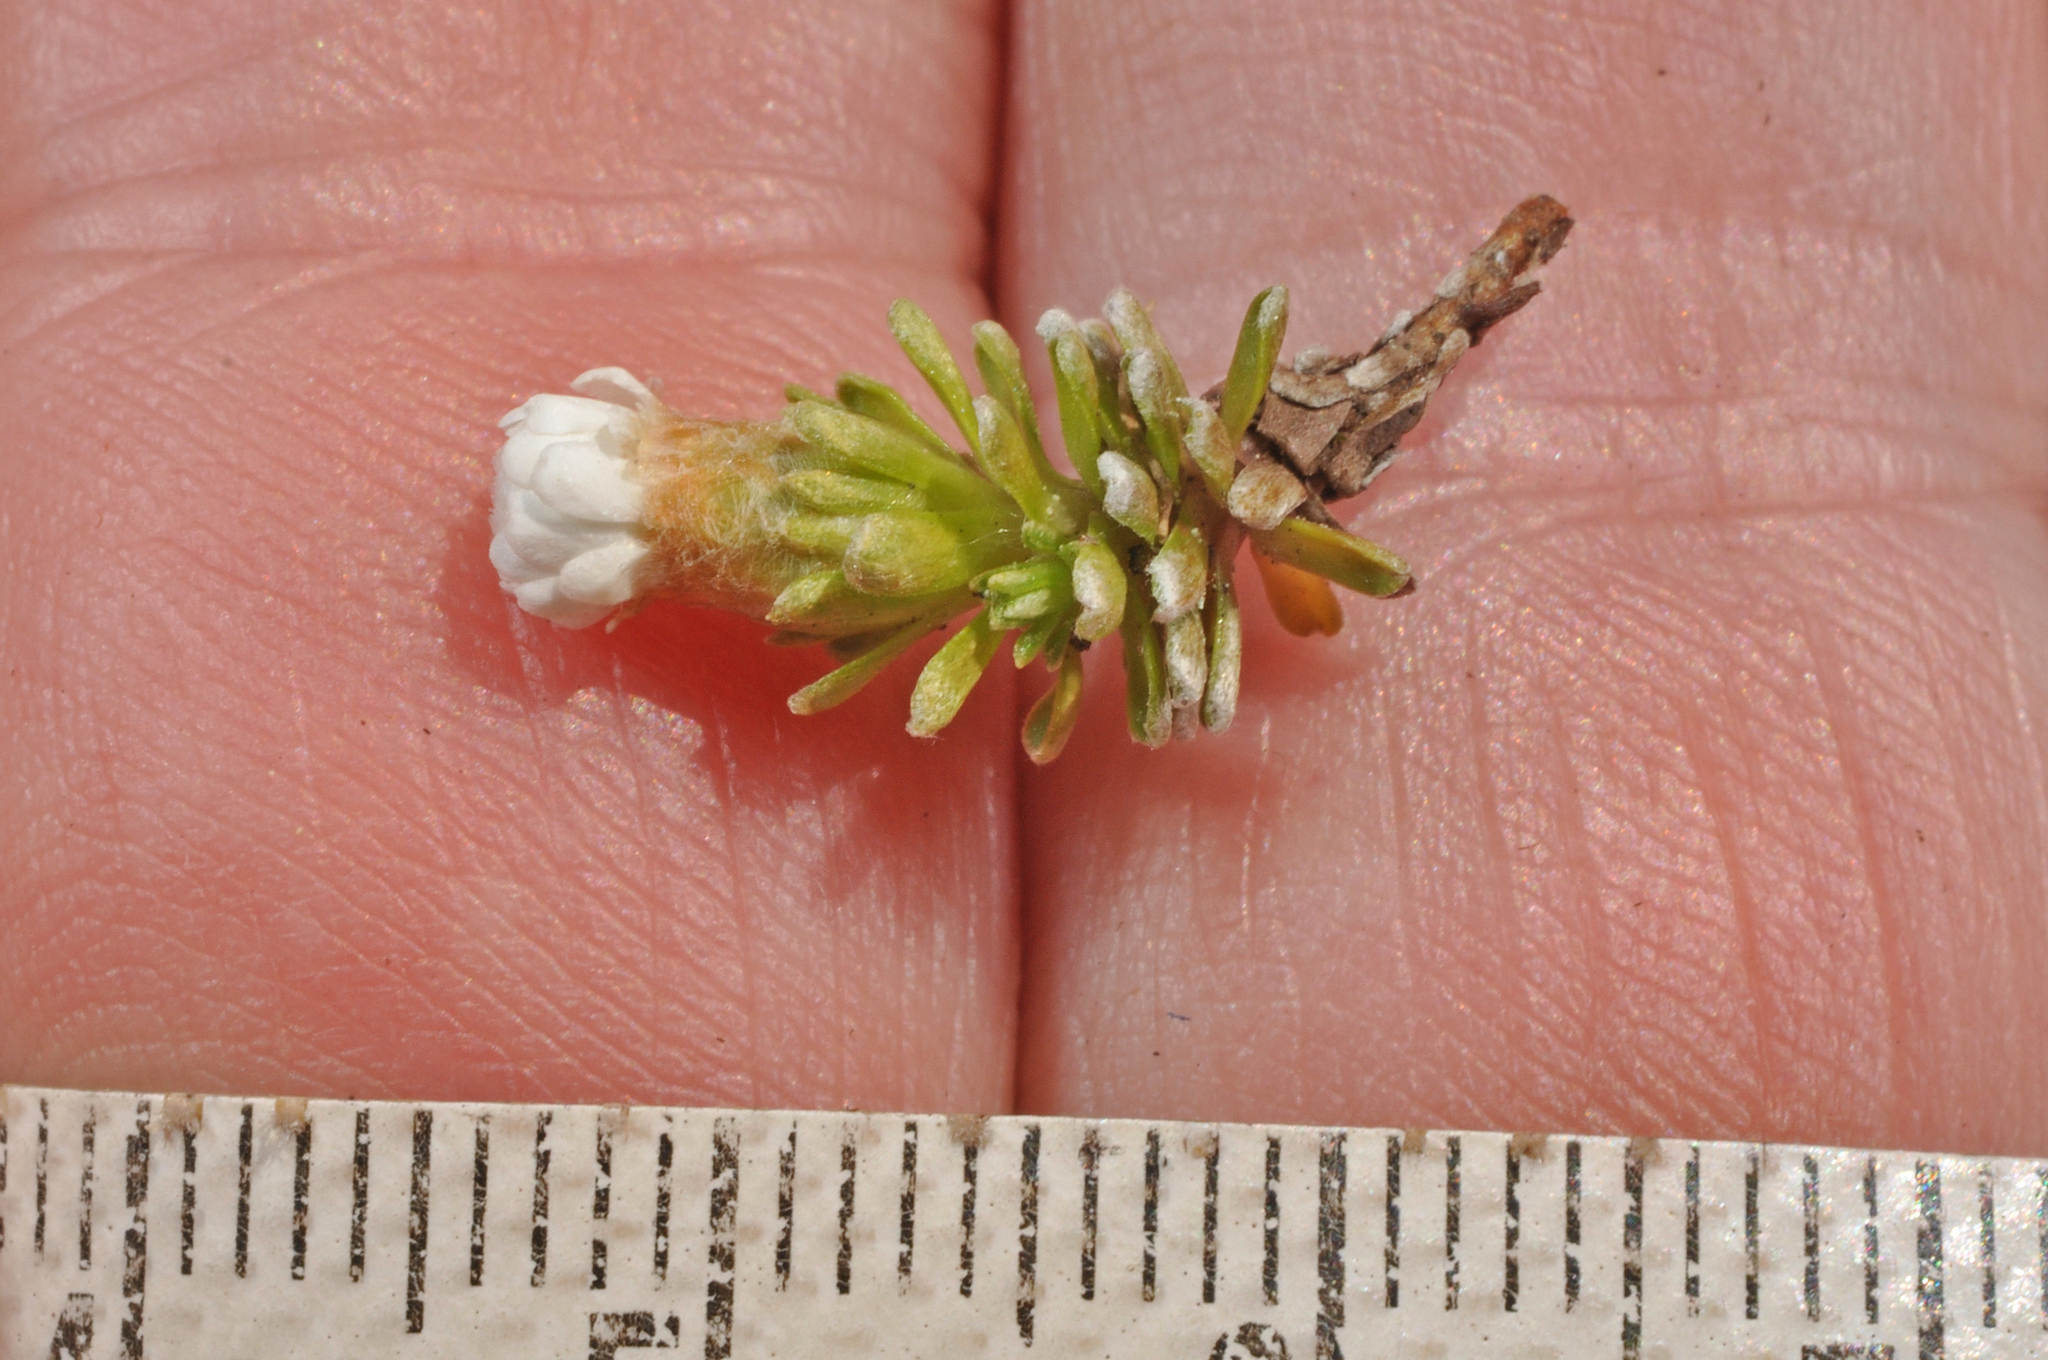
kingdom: Plantae
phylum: Tracheophyta
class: Magnoliopsida
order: Asterales
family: Asteraceae
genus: Raoulia
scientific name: Raoulia subsericea
